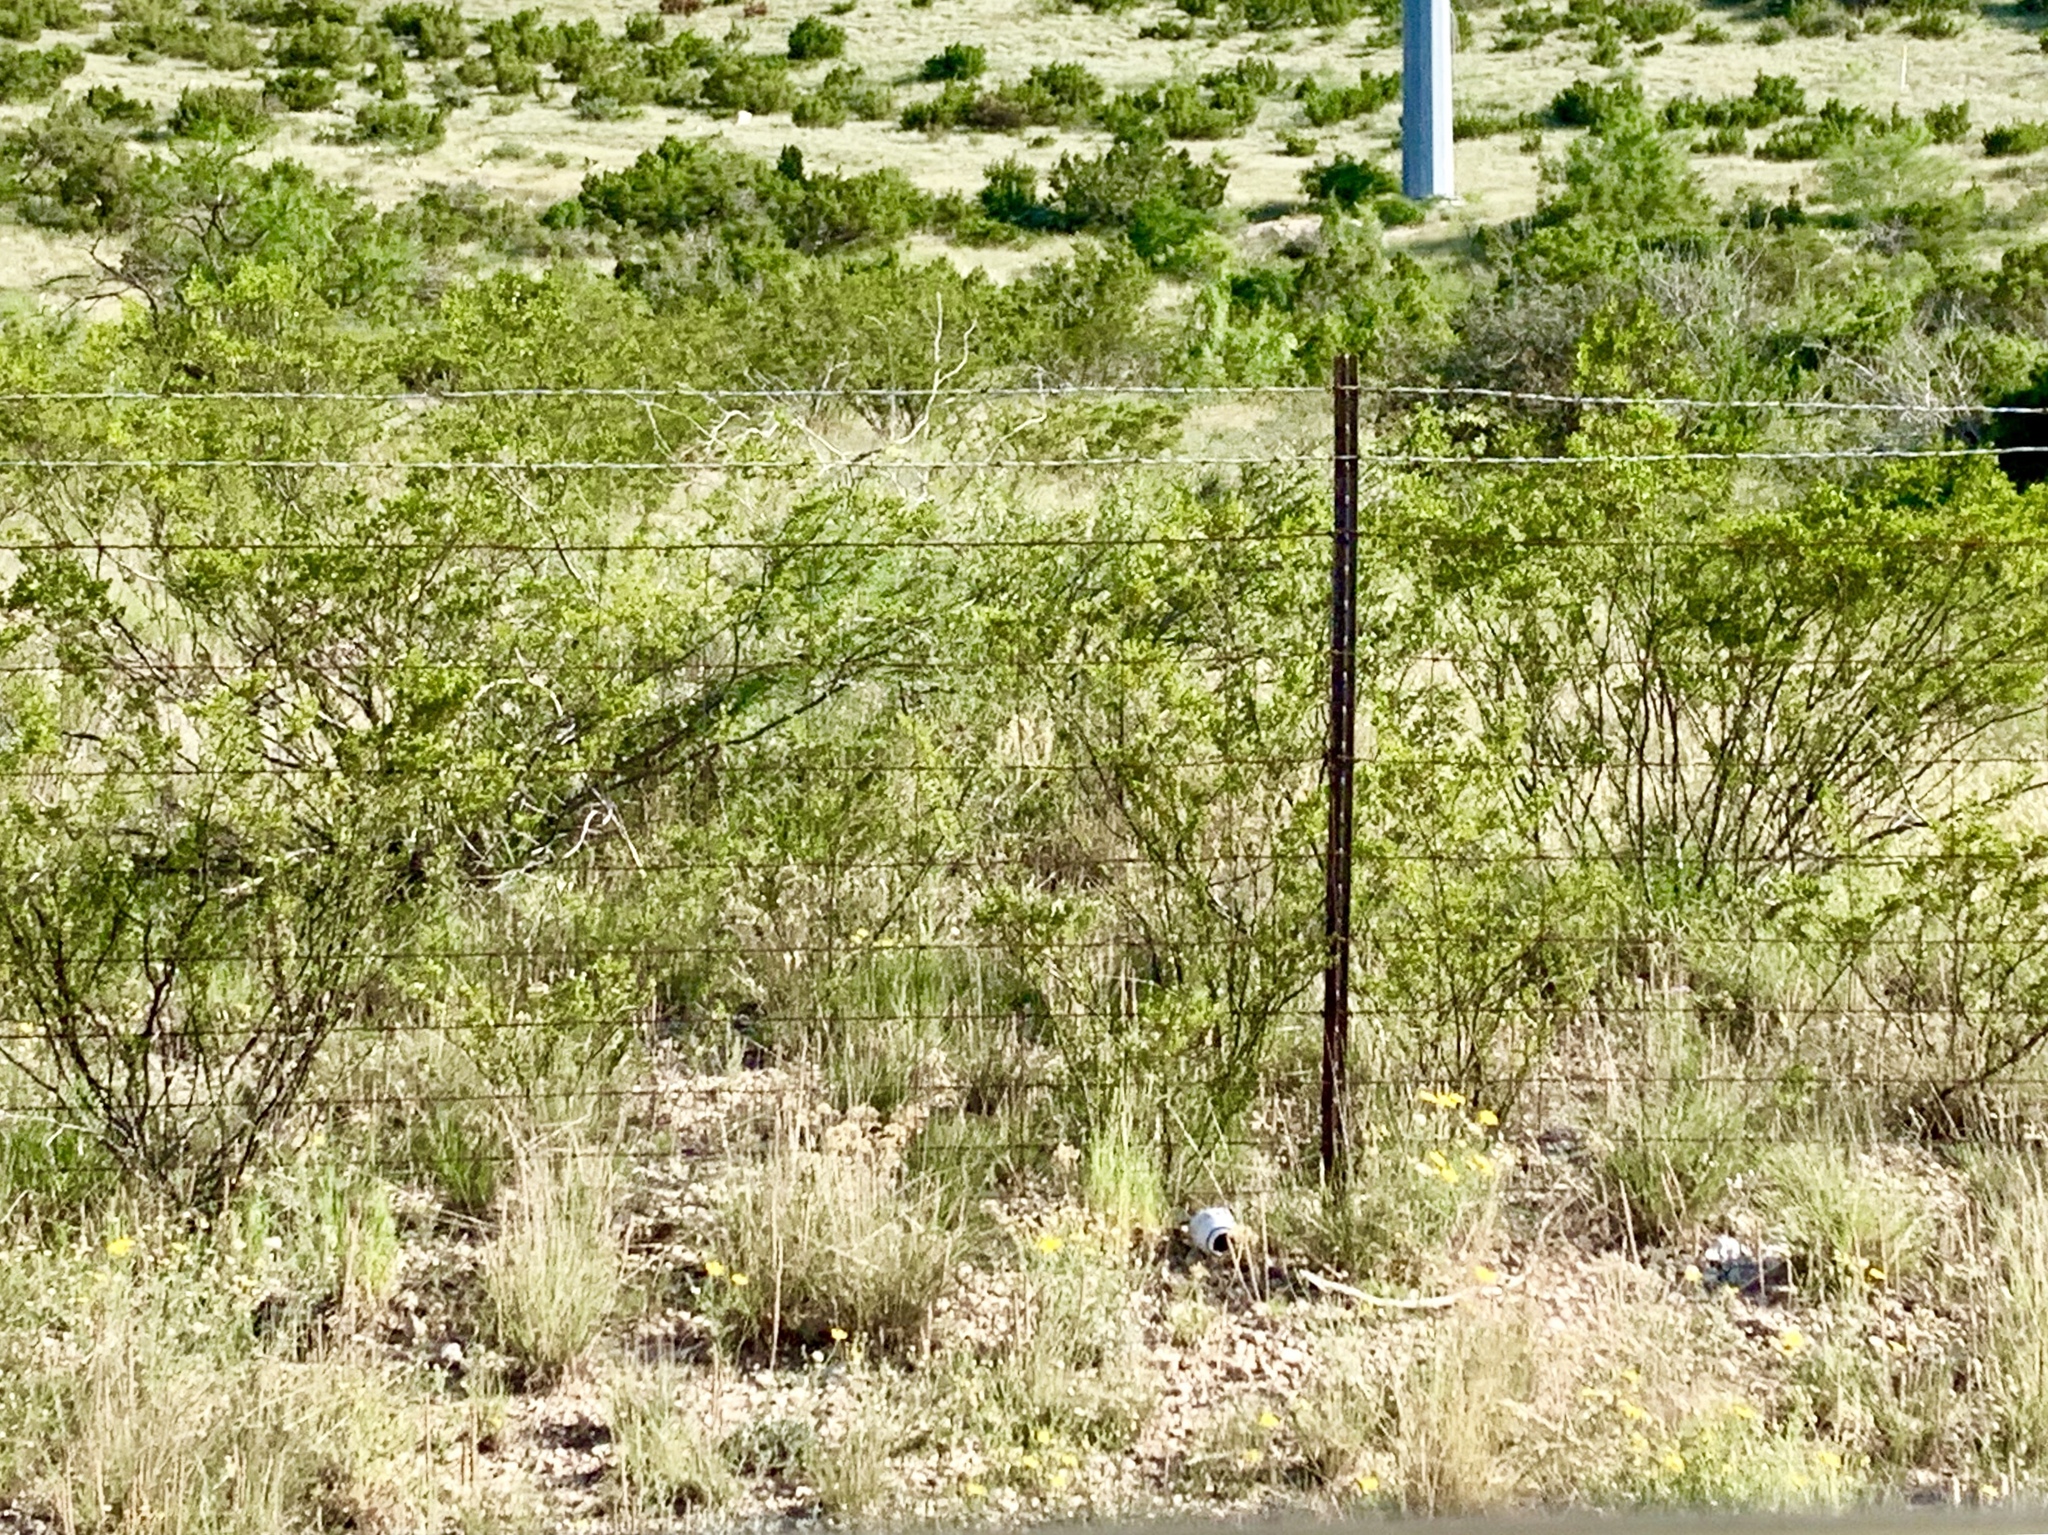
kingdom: Plantae
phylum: Tracheophyta
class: Magnoliopsida
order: Zygophyllales
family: Zygophyllaceae
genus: Larrea
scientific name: Larrea tridentata
